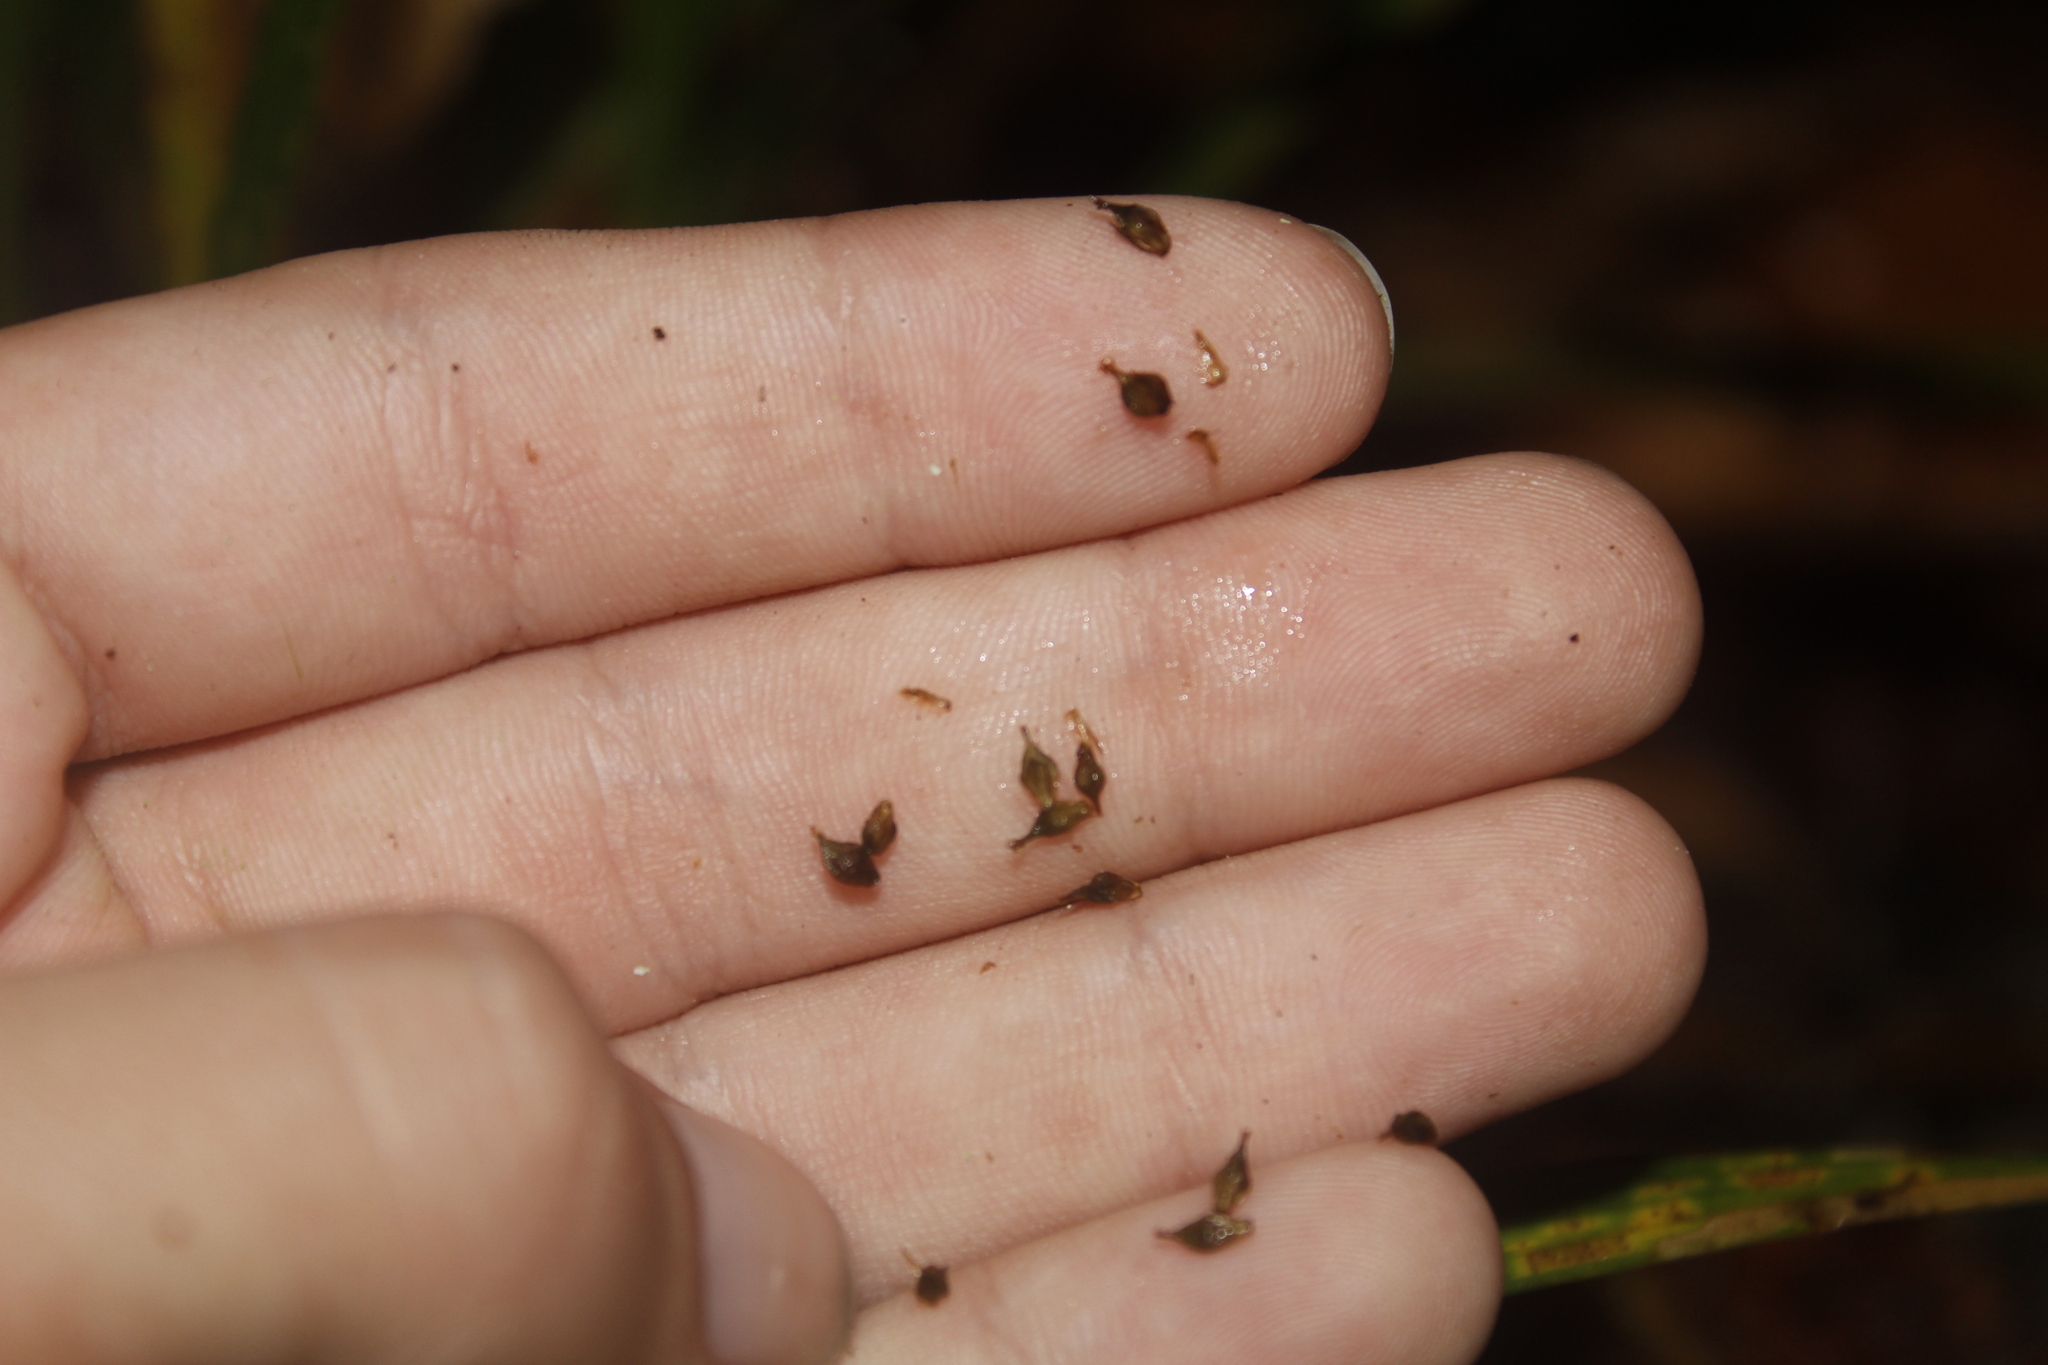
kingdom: Plantae
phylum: Tracheophyta
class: Liliopsida
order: Poales
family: Cyperaceae
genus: Carex
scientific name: Carex scabrata
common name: Eastern rough sedge
